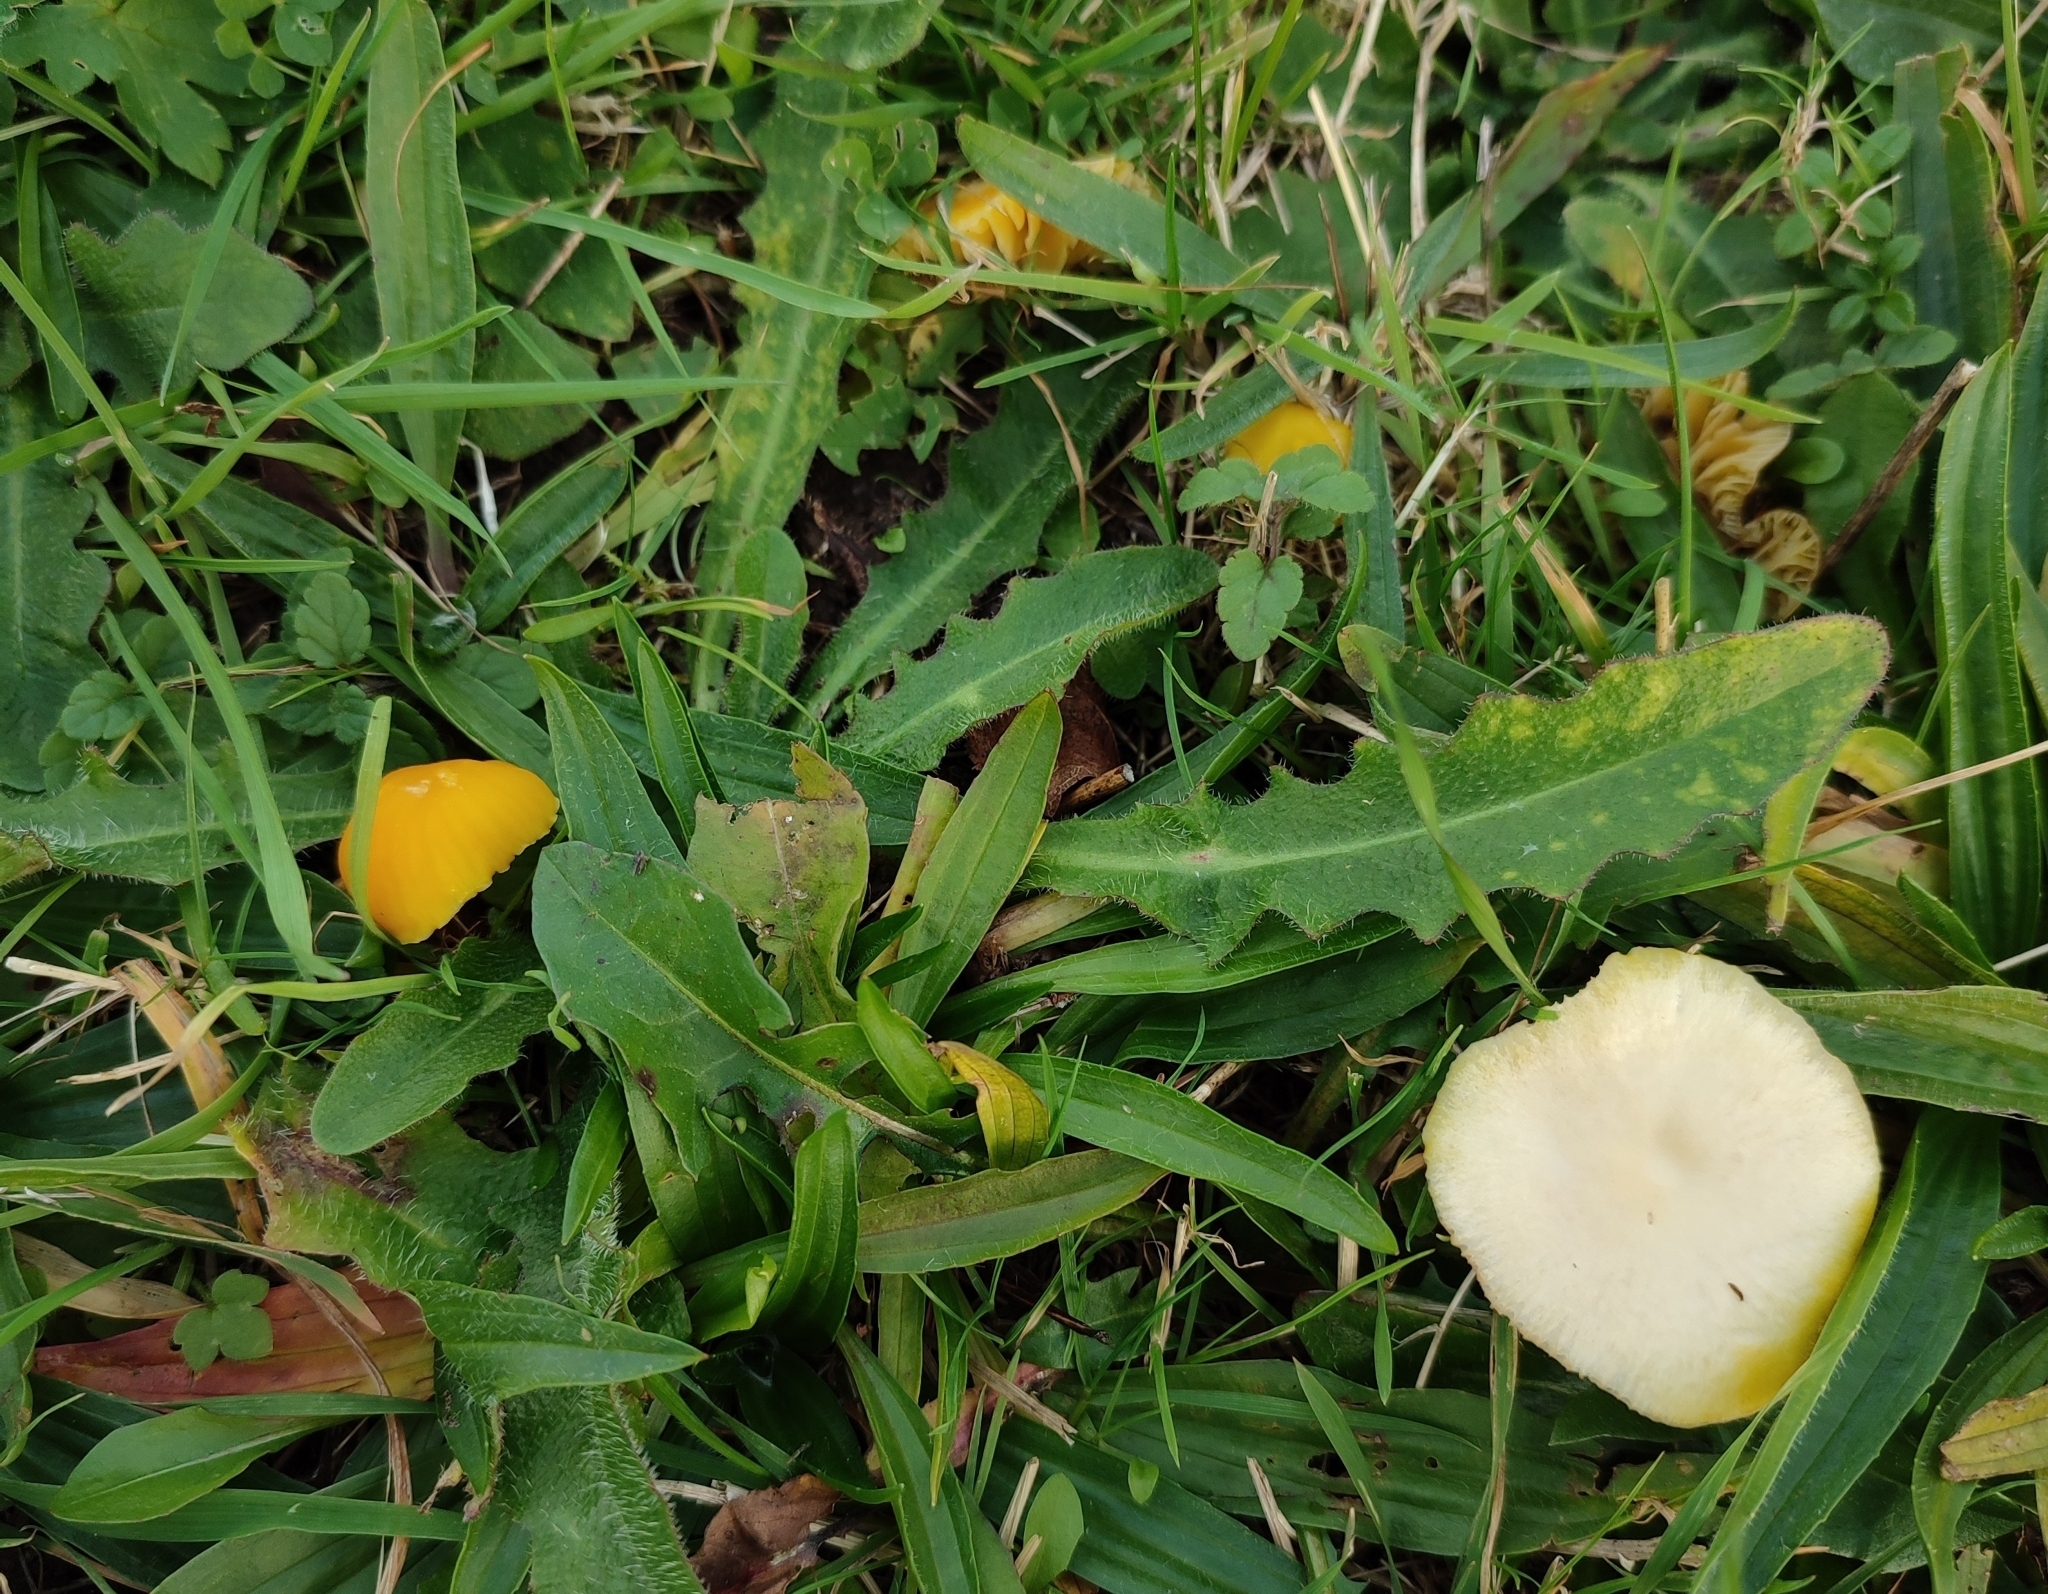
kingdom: Fungi
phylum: Basidiomycota
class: Agaricomycetes
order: Agaricales
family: Hygrophoraceae
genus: Hygrocybe
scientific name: Hygrocybe ceracea
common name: Butter waxcap
